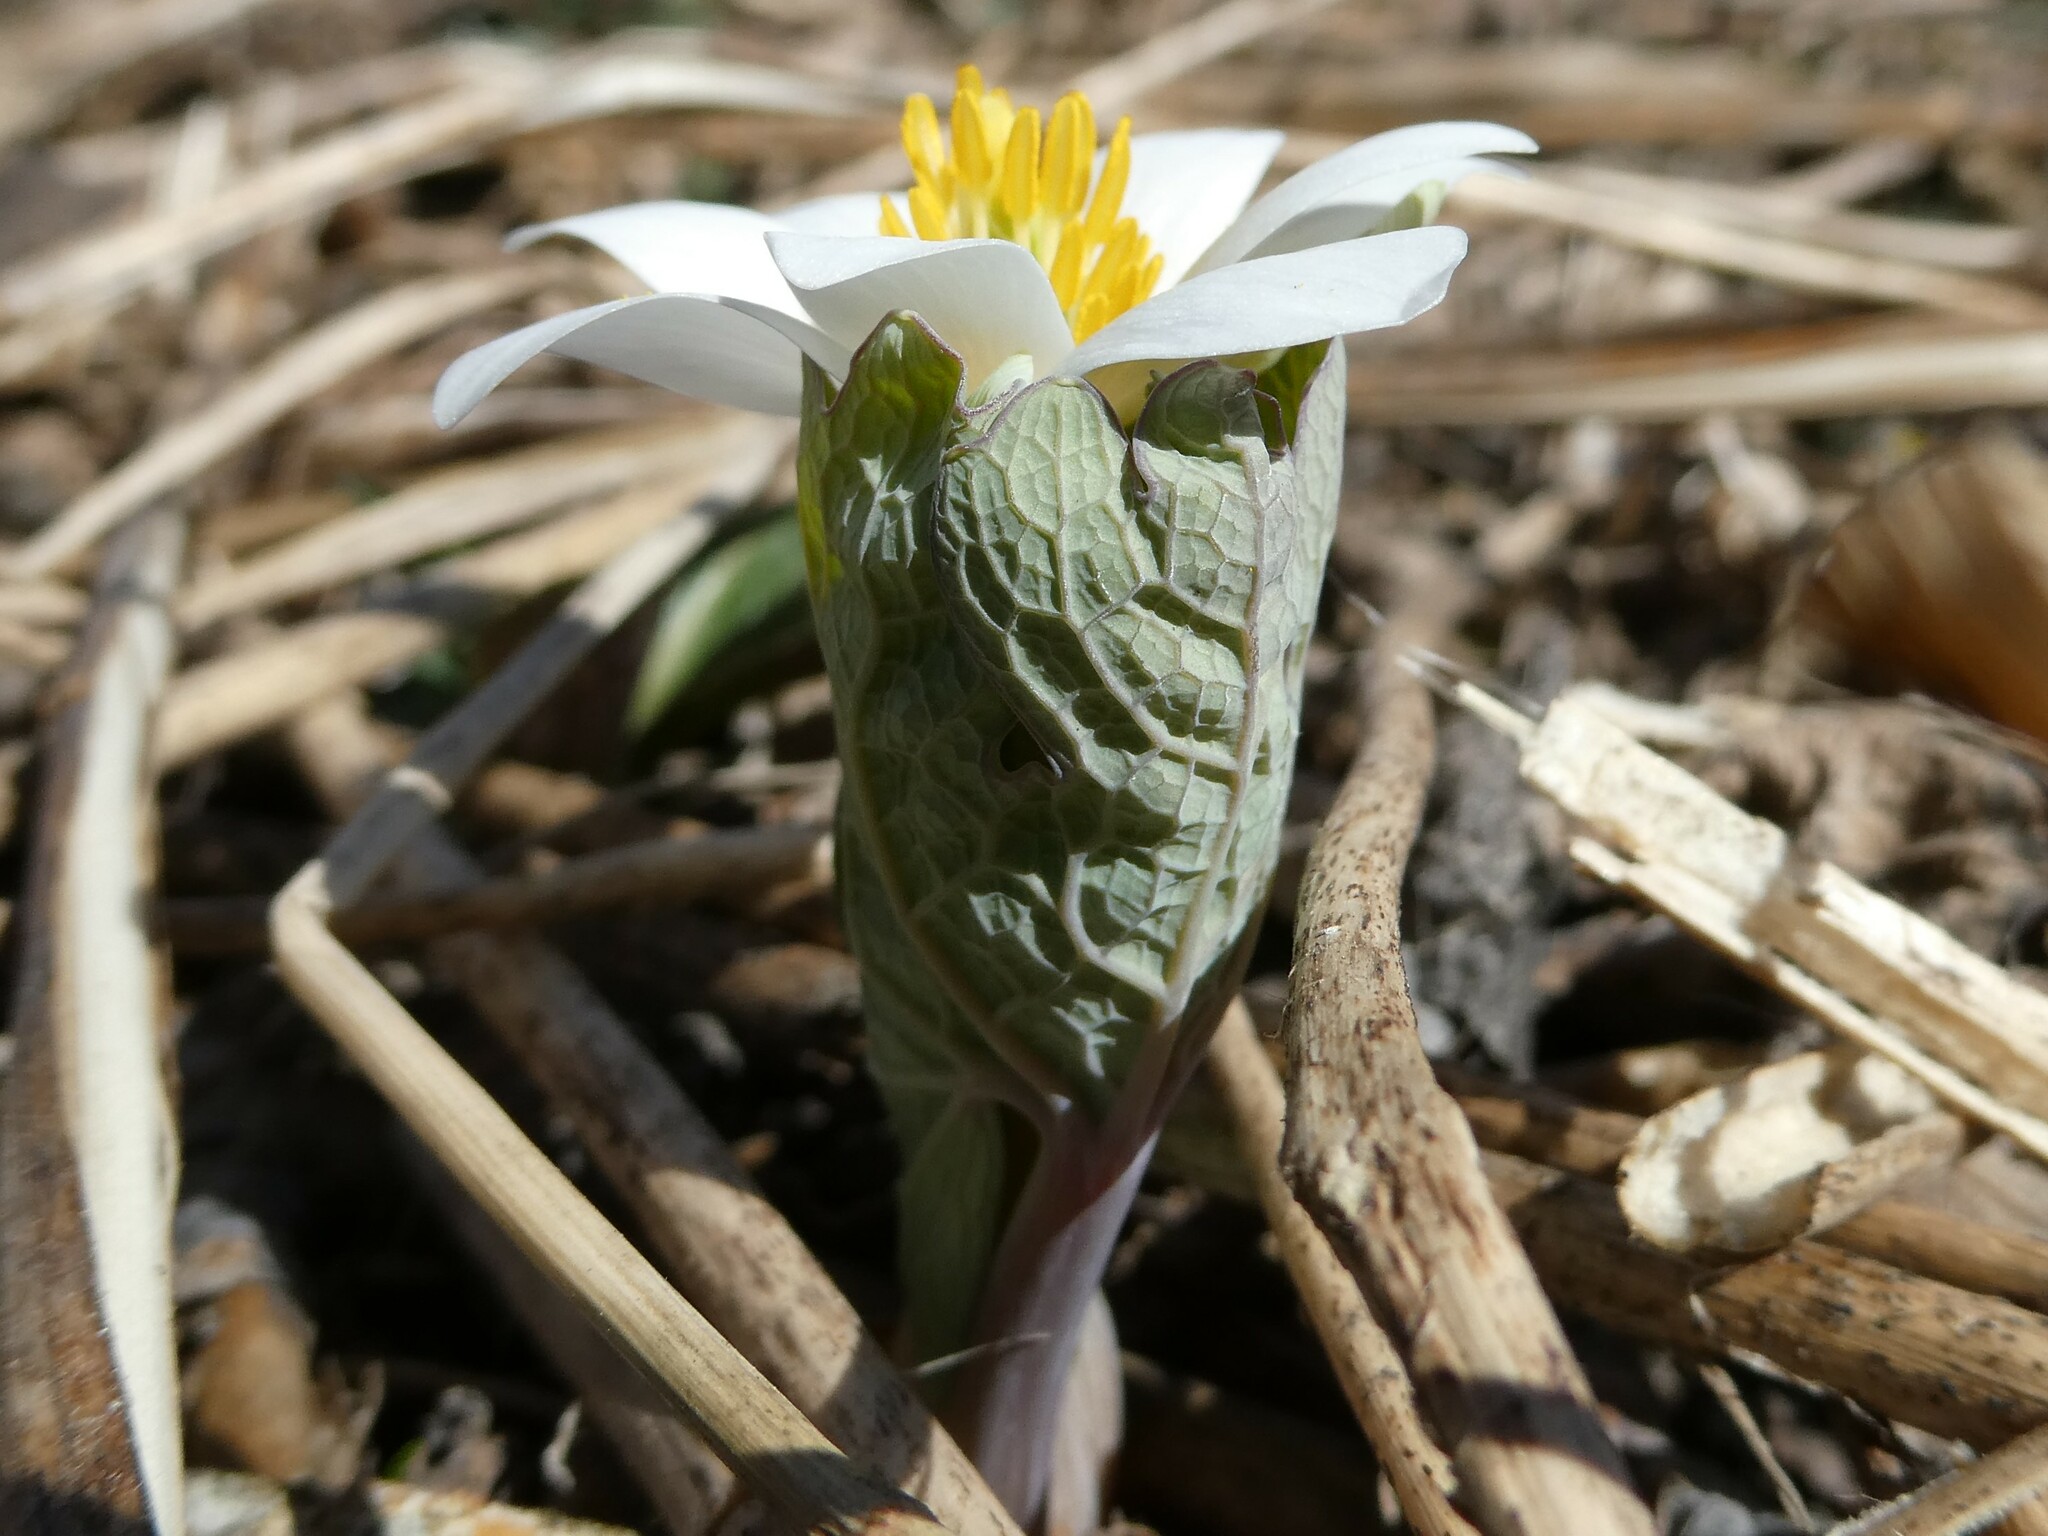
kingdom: Plantae
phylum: Tracheophyta
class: Magnoliopsida
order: Ranunculales
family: Papaveraceae
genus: Sanguinaria
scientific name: Sanguinaria canadensis
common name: Bloodroot
